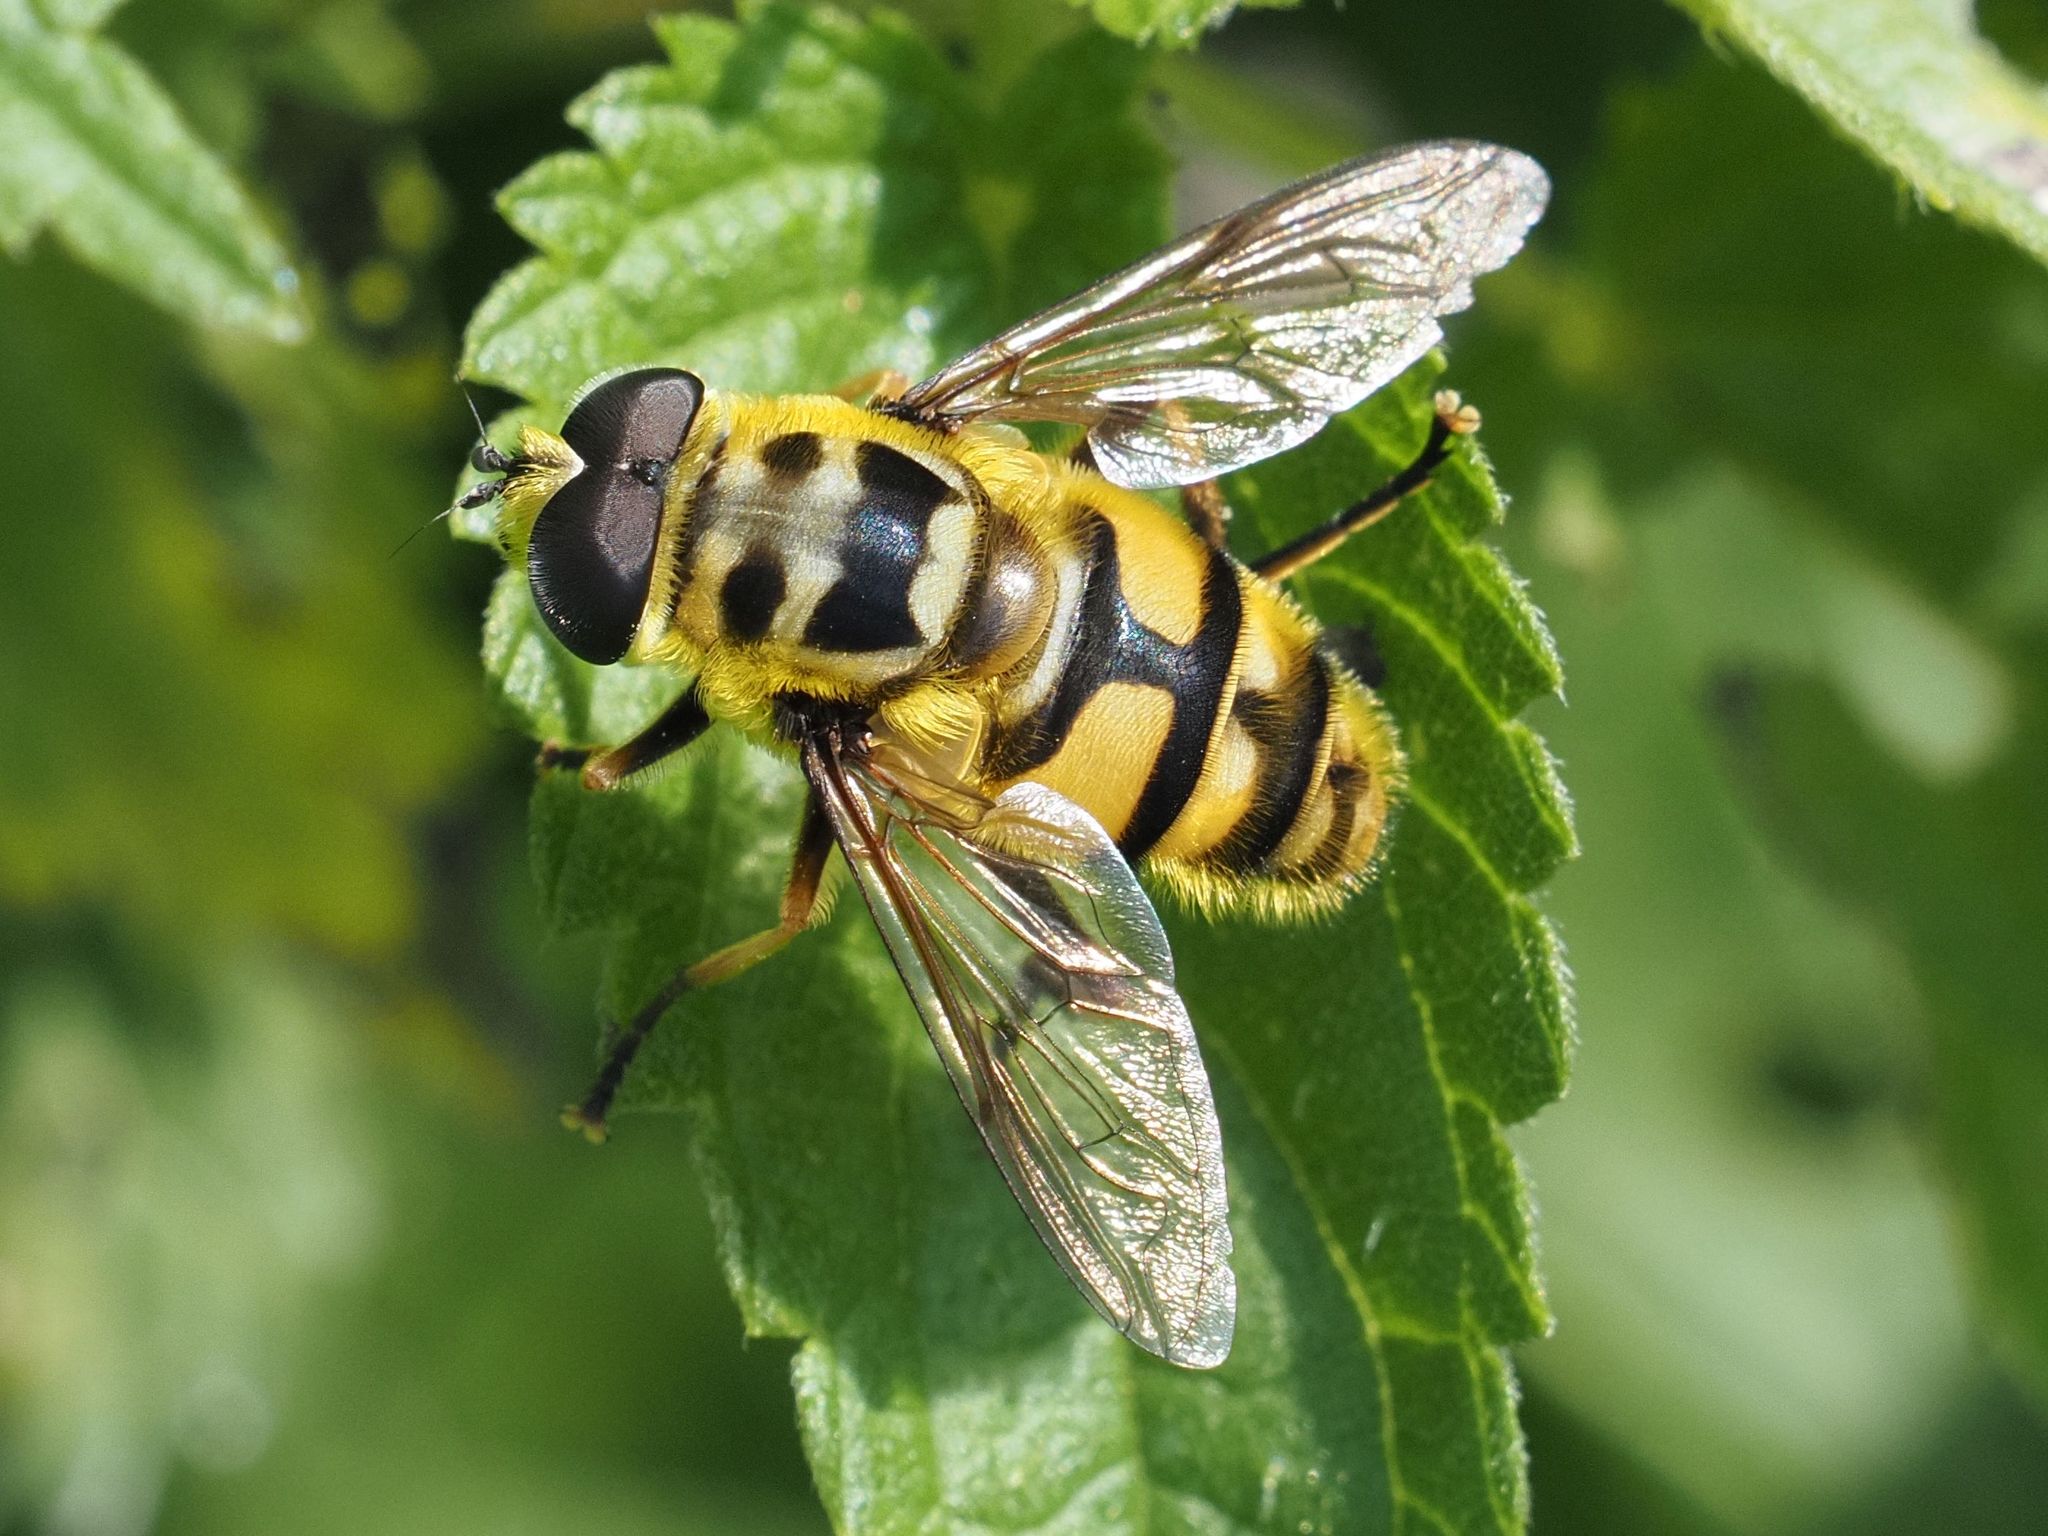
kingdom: Animalia
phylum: Arthropoda
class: Insecta
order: Diptera
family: Syrphidae
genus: Myathropa
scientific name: Myathropa florea
